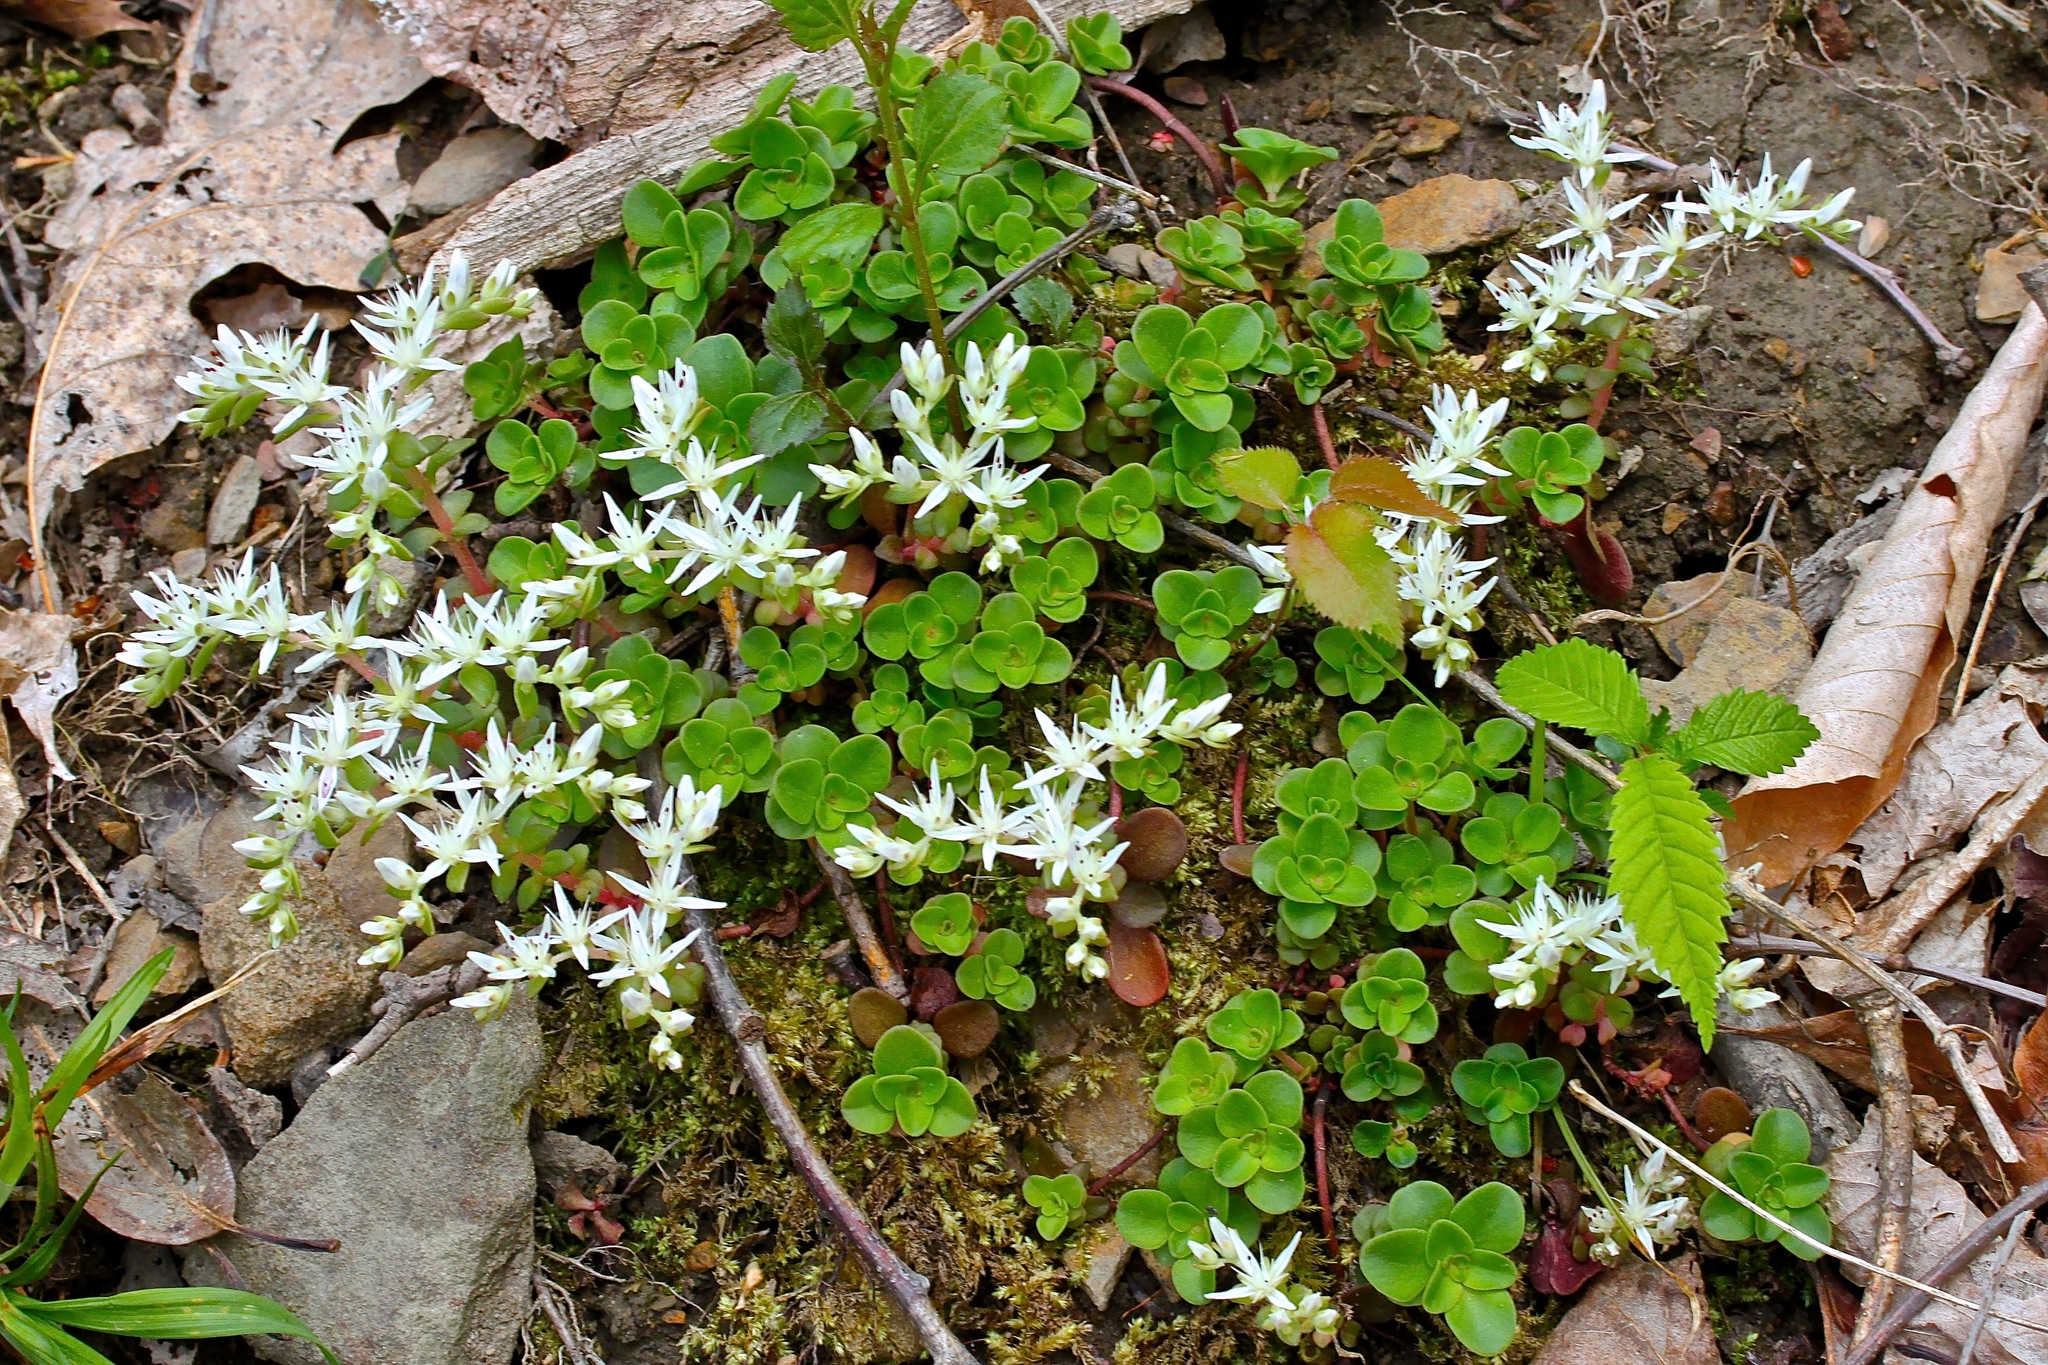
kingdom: Plantae
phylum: Tracheophyta
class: Magnoliopsida
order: Saxifragales
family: Crassulaceae
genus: Sedum
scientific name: Sedum ternatum
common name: Wild stonecrop
